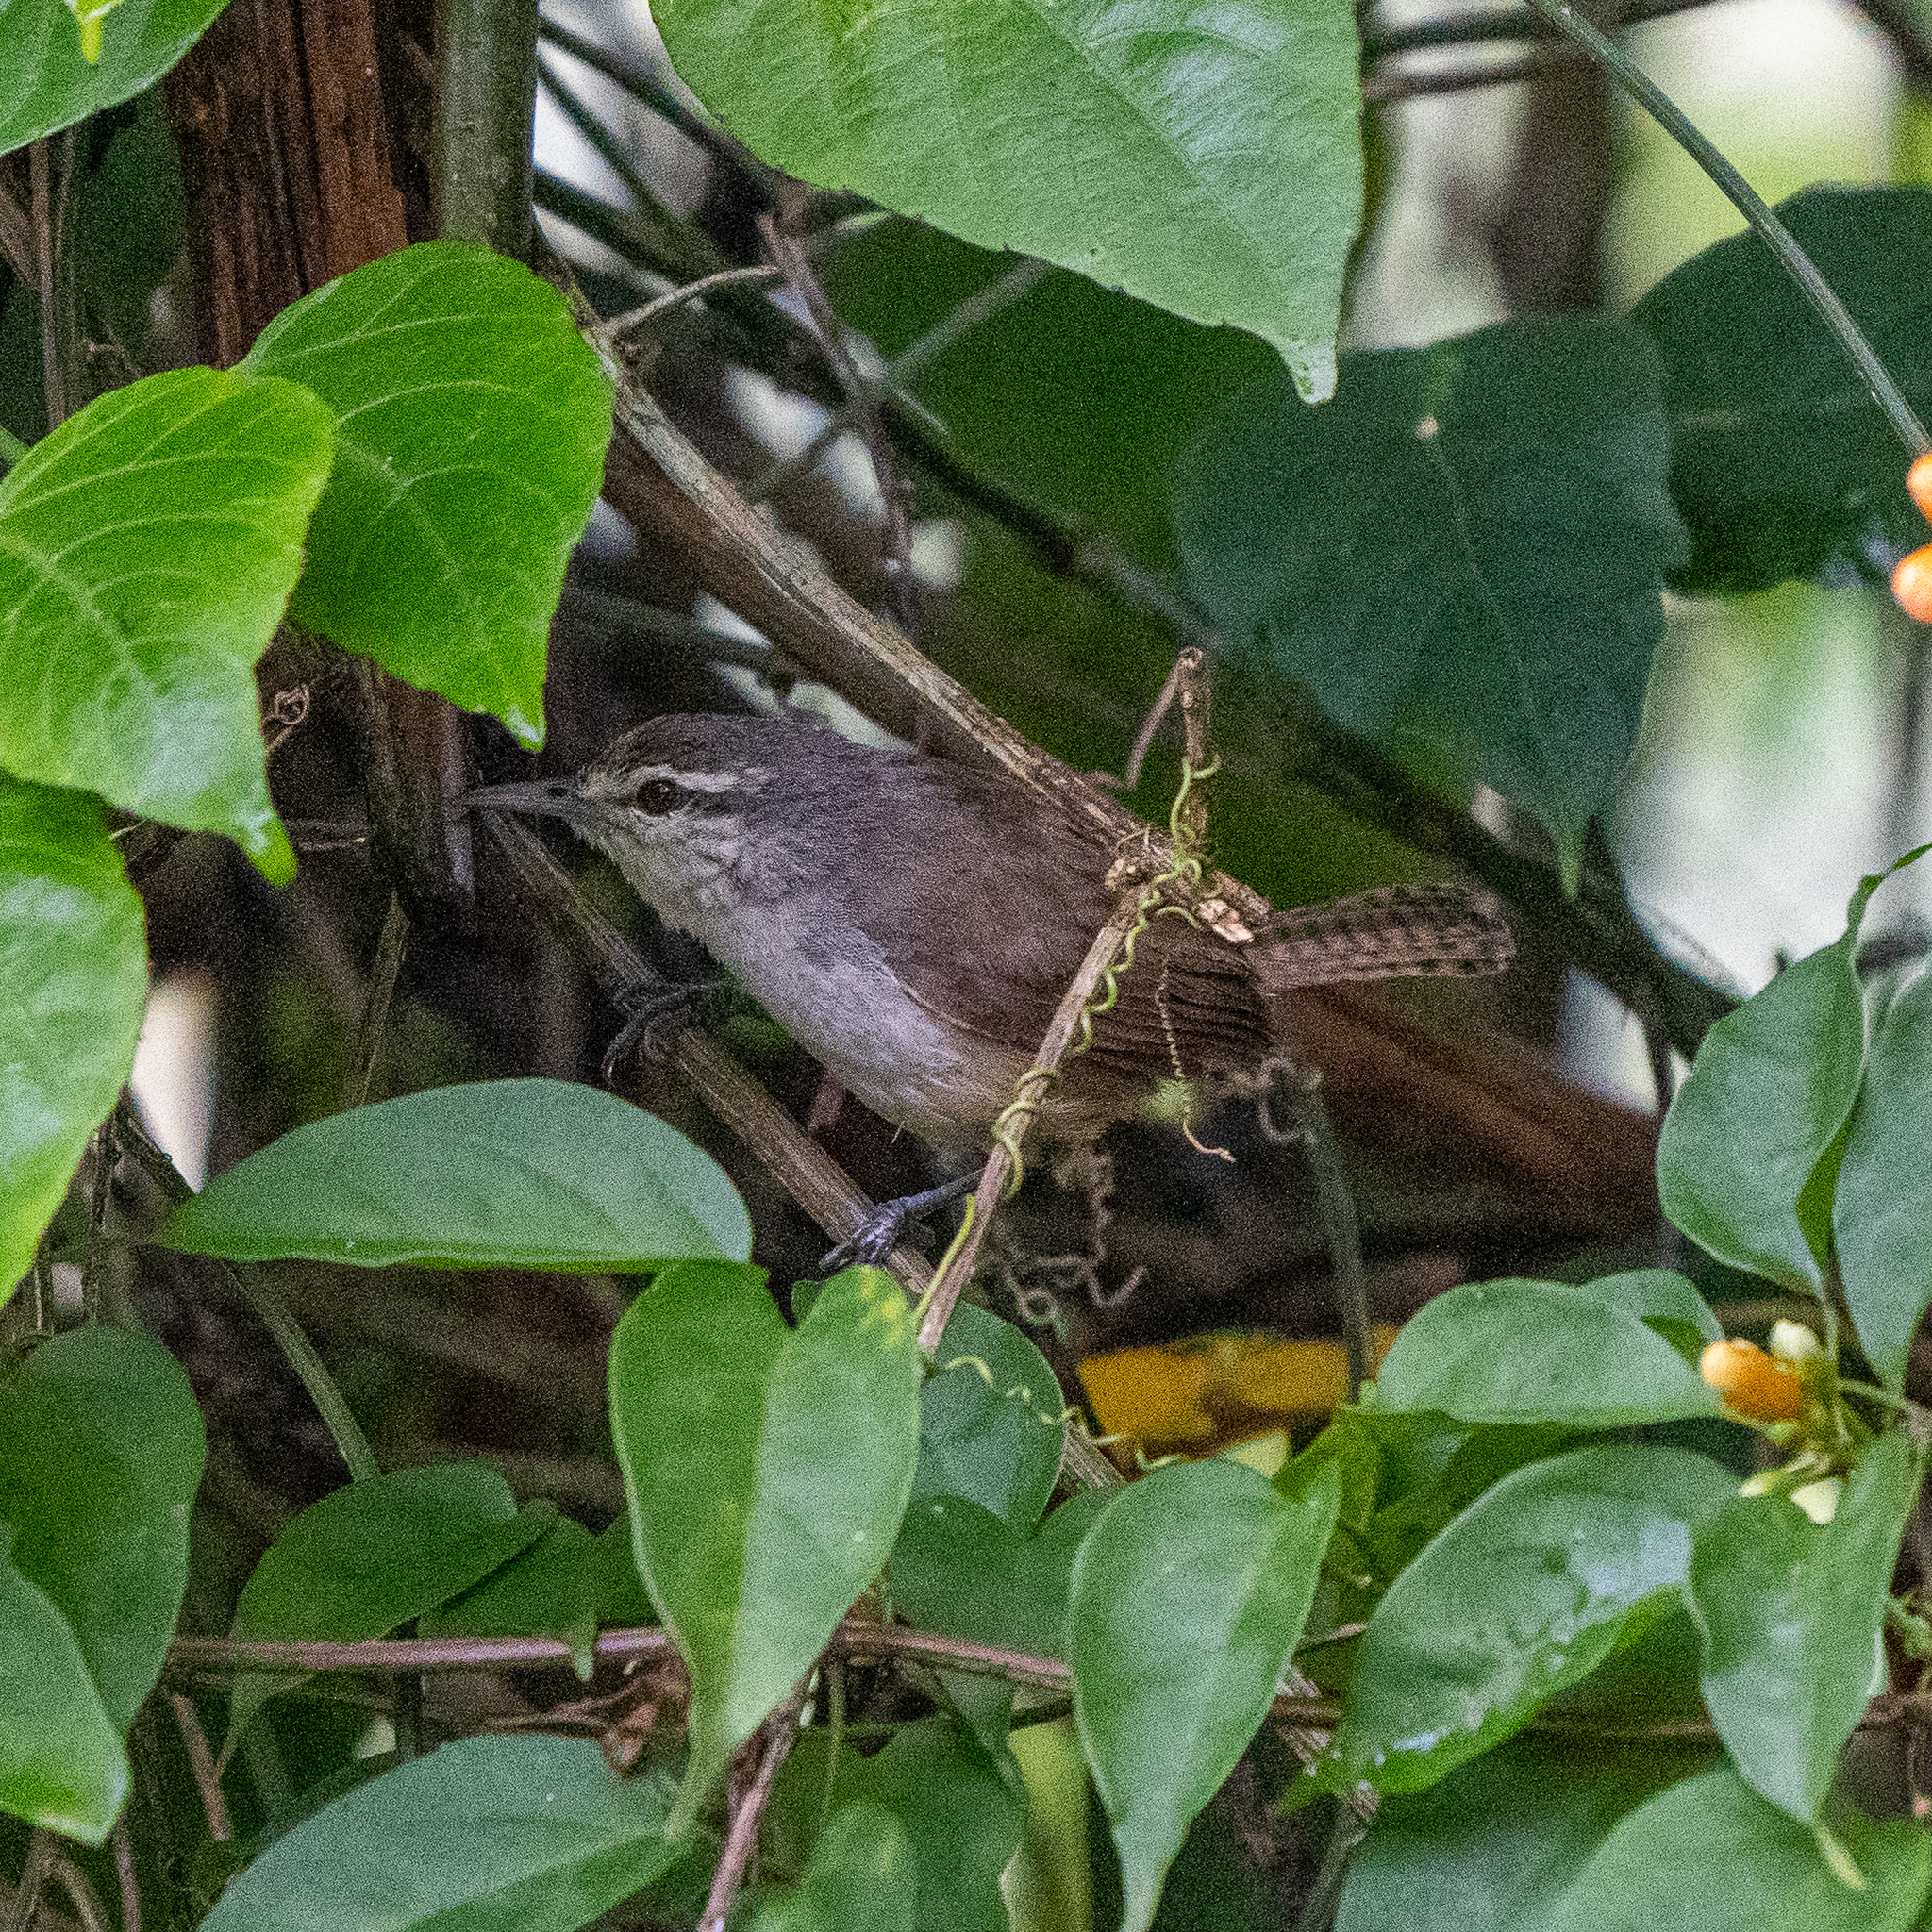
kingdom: Animalia
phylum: Chordata
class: Aves
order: Passeriformes
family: Troglodytidae
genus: Cantorchilus
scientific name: Cantorchilus modestus
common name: Cabanis's wren
